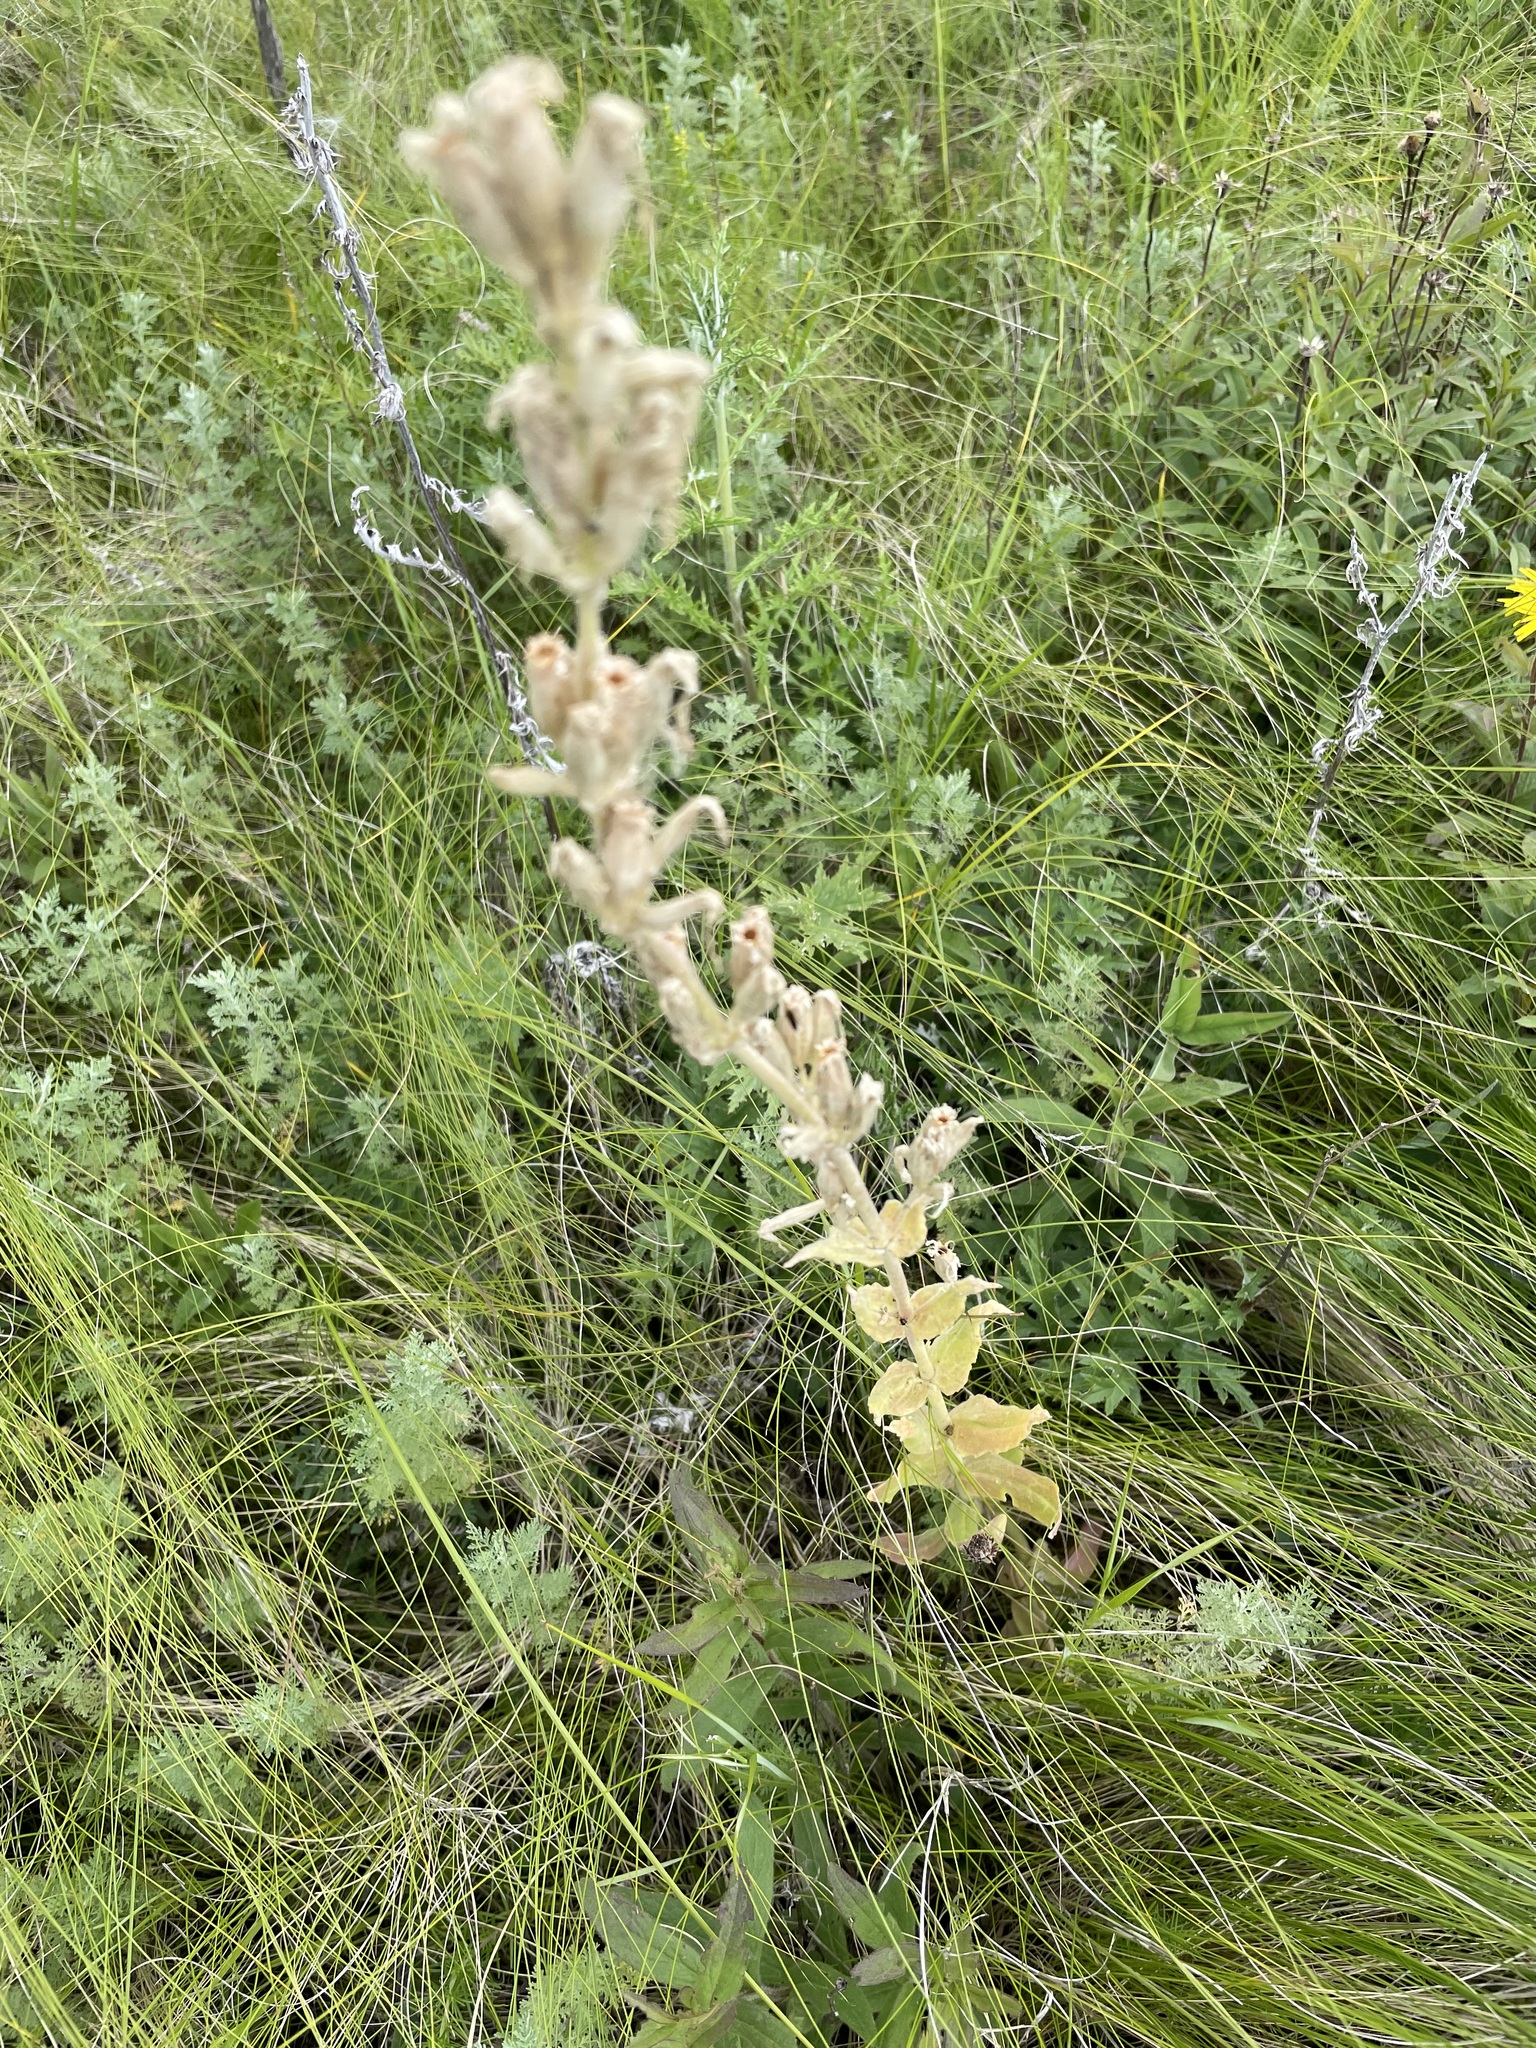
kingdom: Plantae
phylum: Tracheophyta
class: Magnoliopsida
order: Caryophyllales
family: Caryophyllaceae
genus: Silene
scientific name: Silene viscosa
